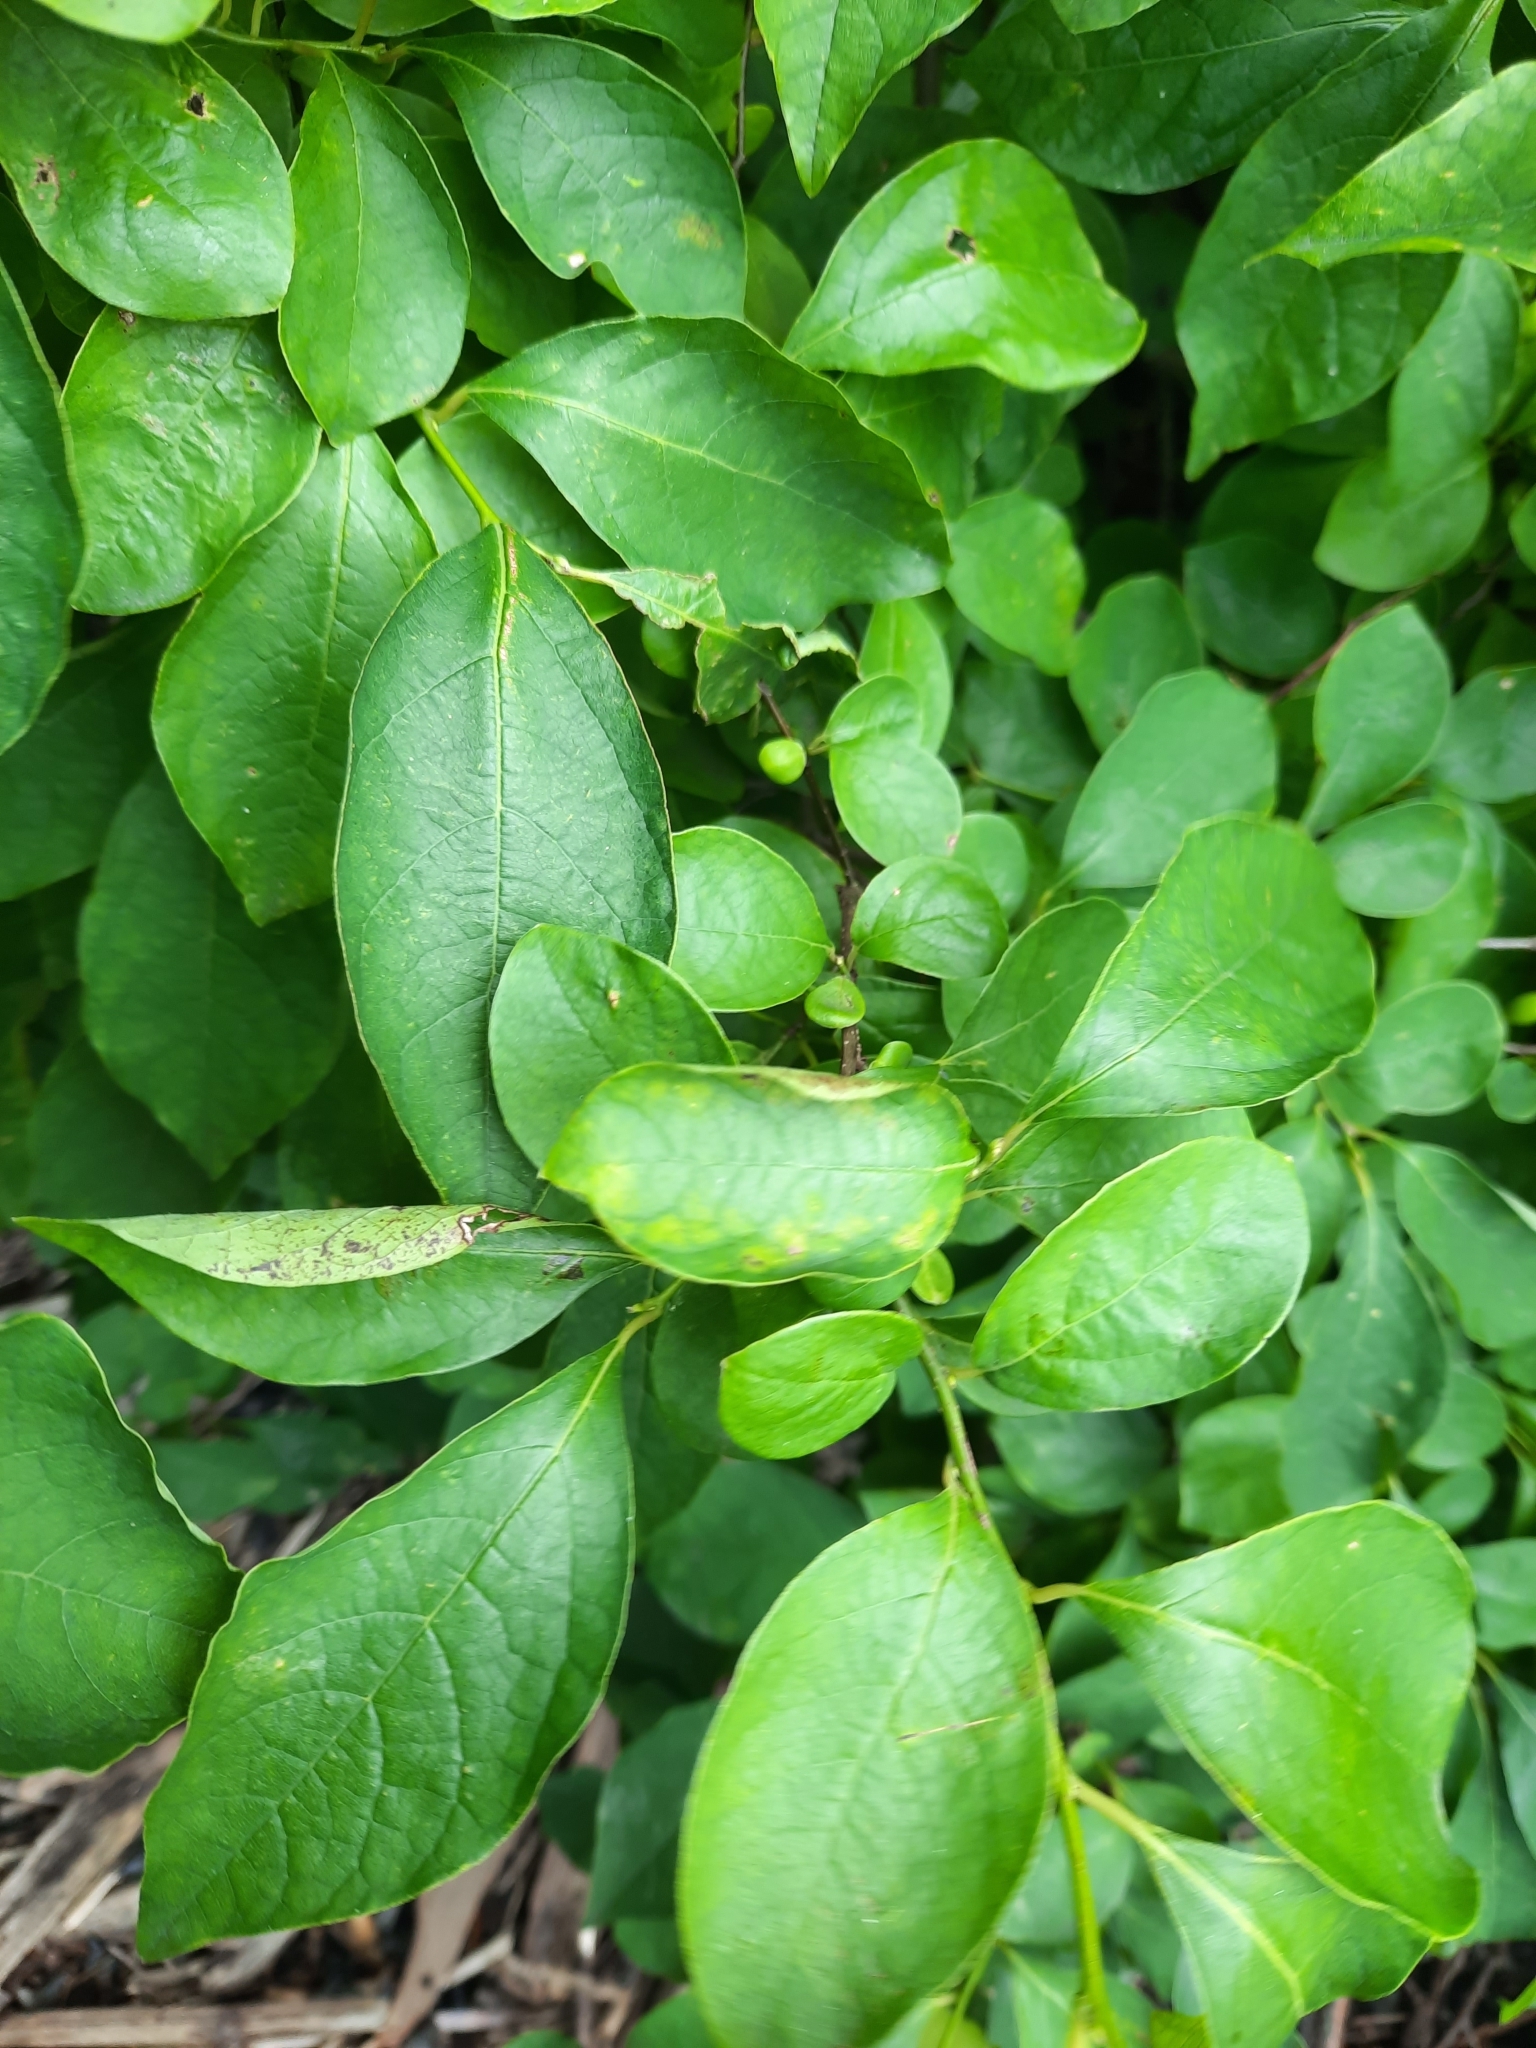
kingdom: Plantae
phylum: Tracheophyta
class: Magnoliopsida
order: Laurales
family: Lauraceae
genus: Lindera
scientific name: Lindera benzoin
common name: Spicebush
